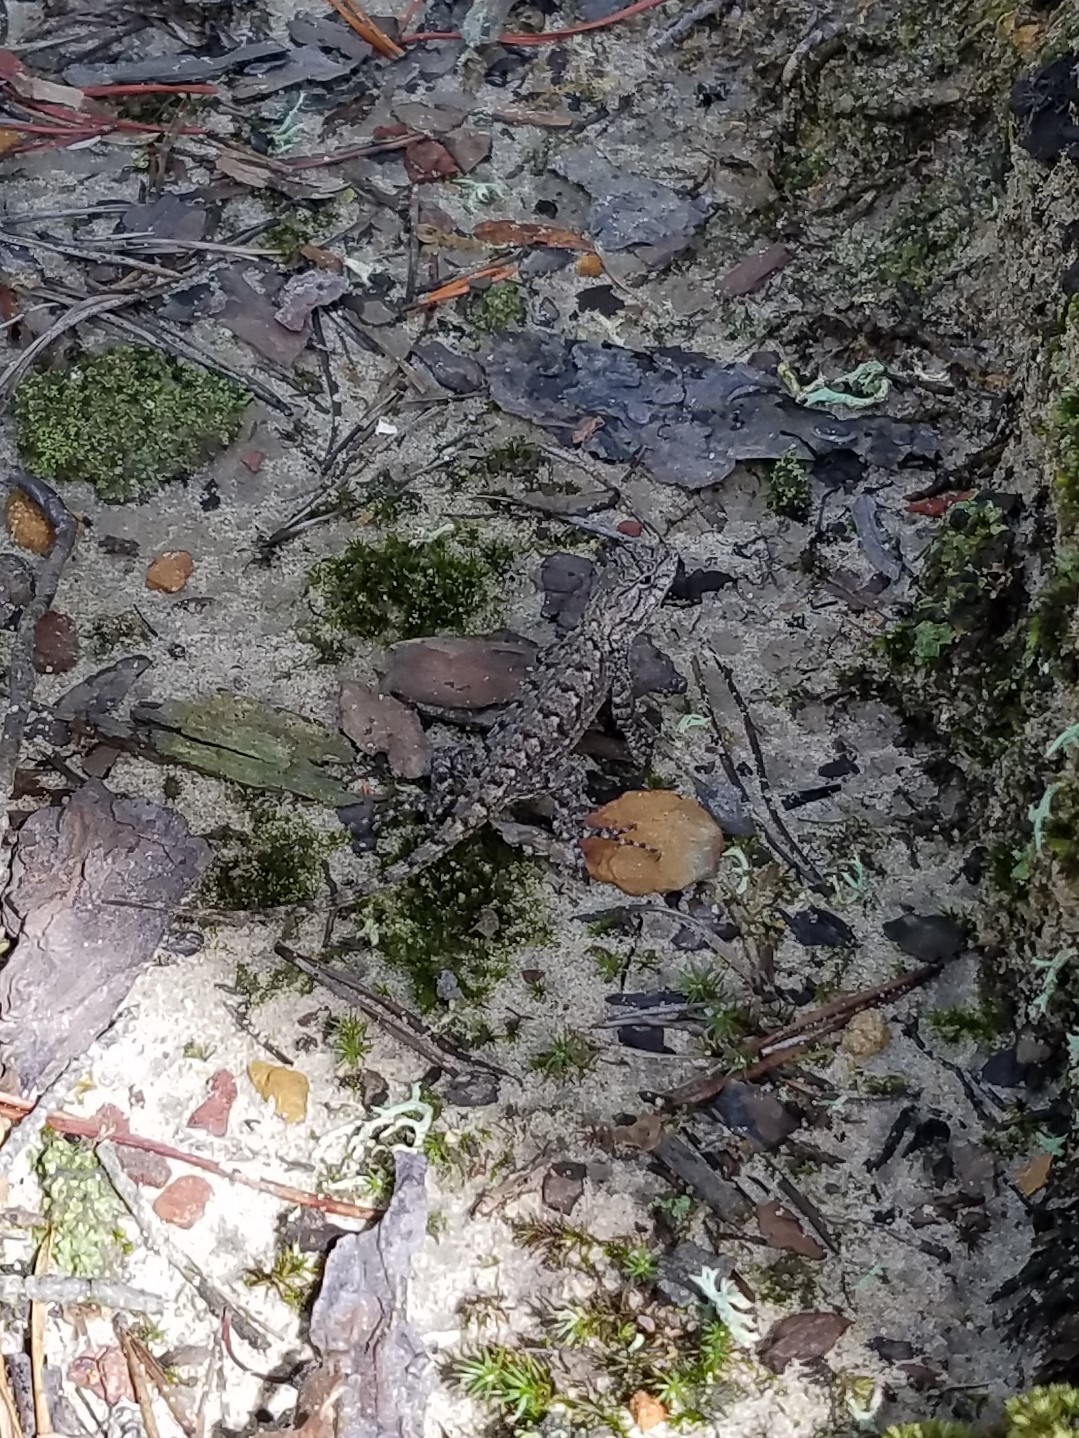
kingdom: Animalia
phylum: Chordata
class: Squamata
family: Phrynosomatidae
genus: Sceloporus
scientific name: Sceloporus undulatus
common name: Eastern fence lizard
